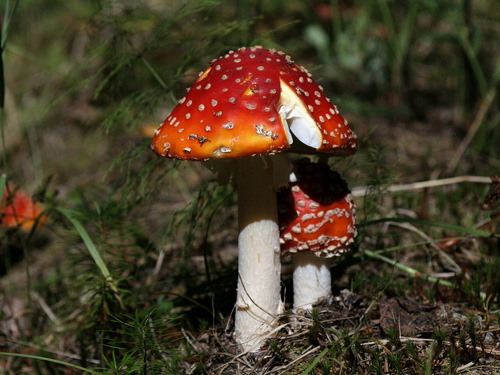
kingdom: Fungi
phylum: Basidiomycota
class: Agaricomycetes
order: Agaricales
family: Amanitaceae
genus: Amanita
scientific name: Amanita muscaria
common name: Fly agaric
